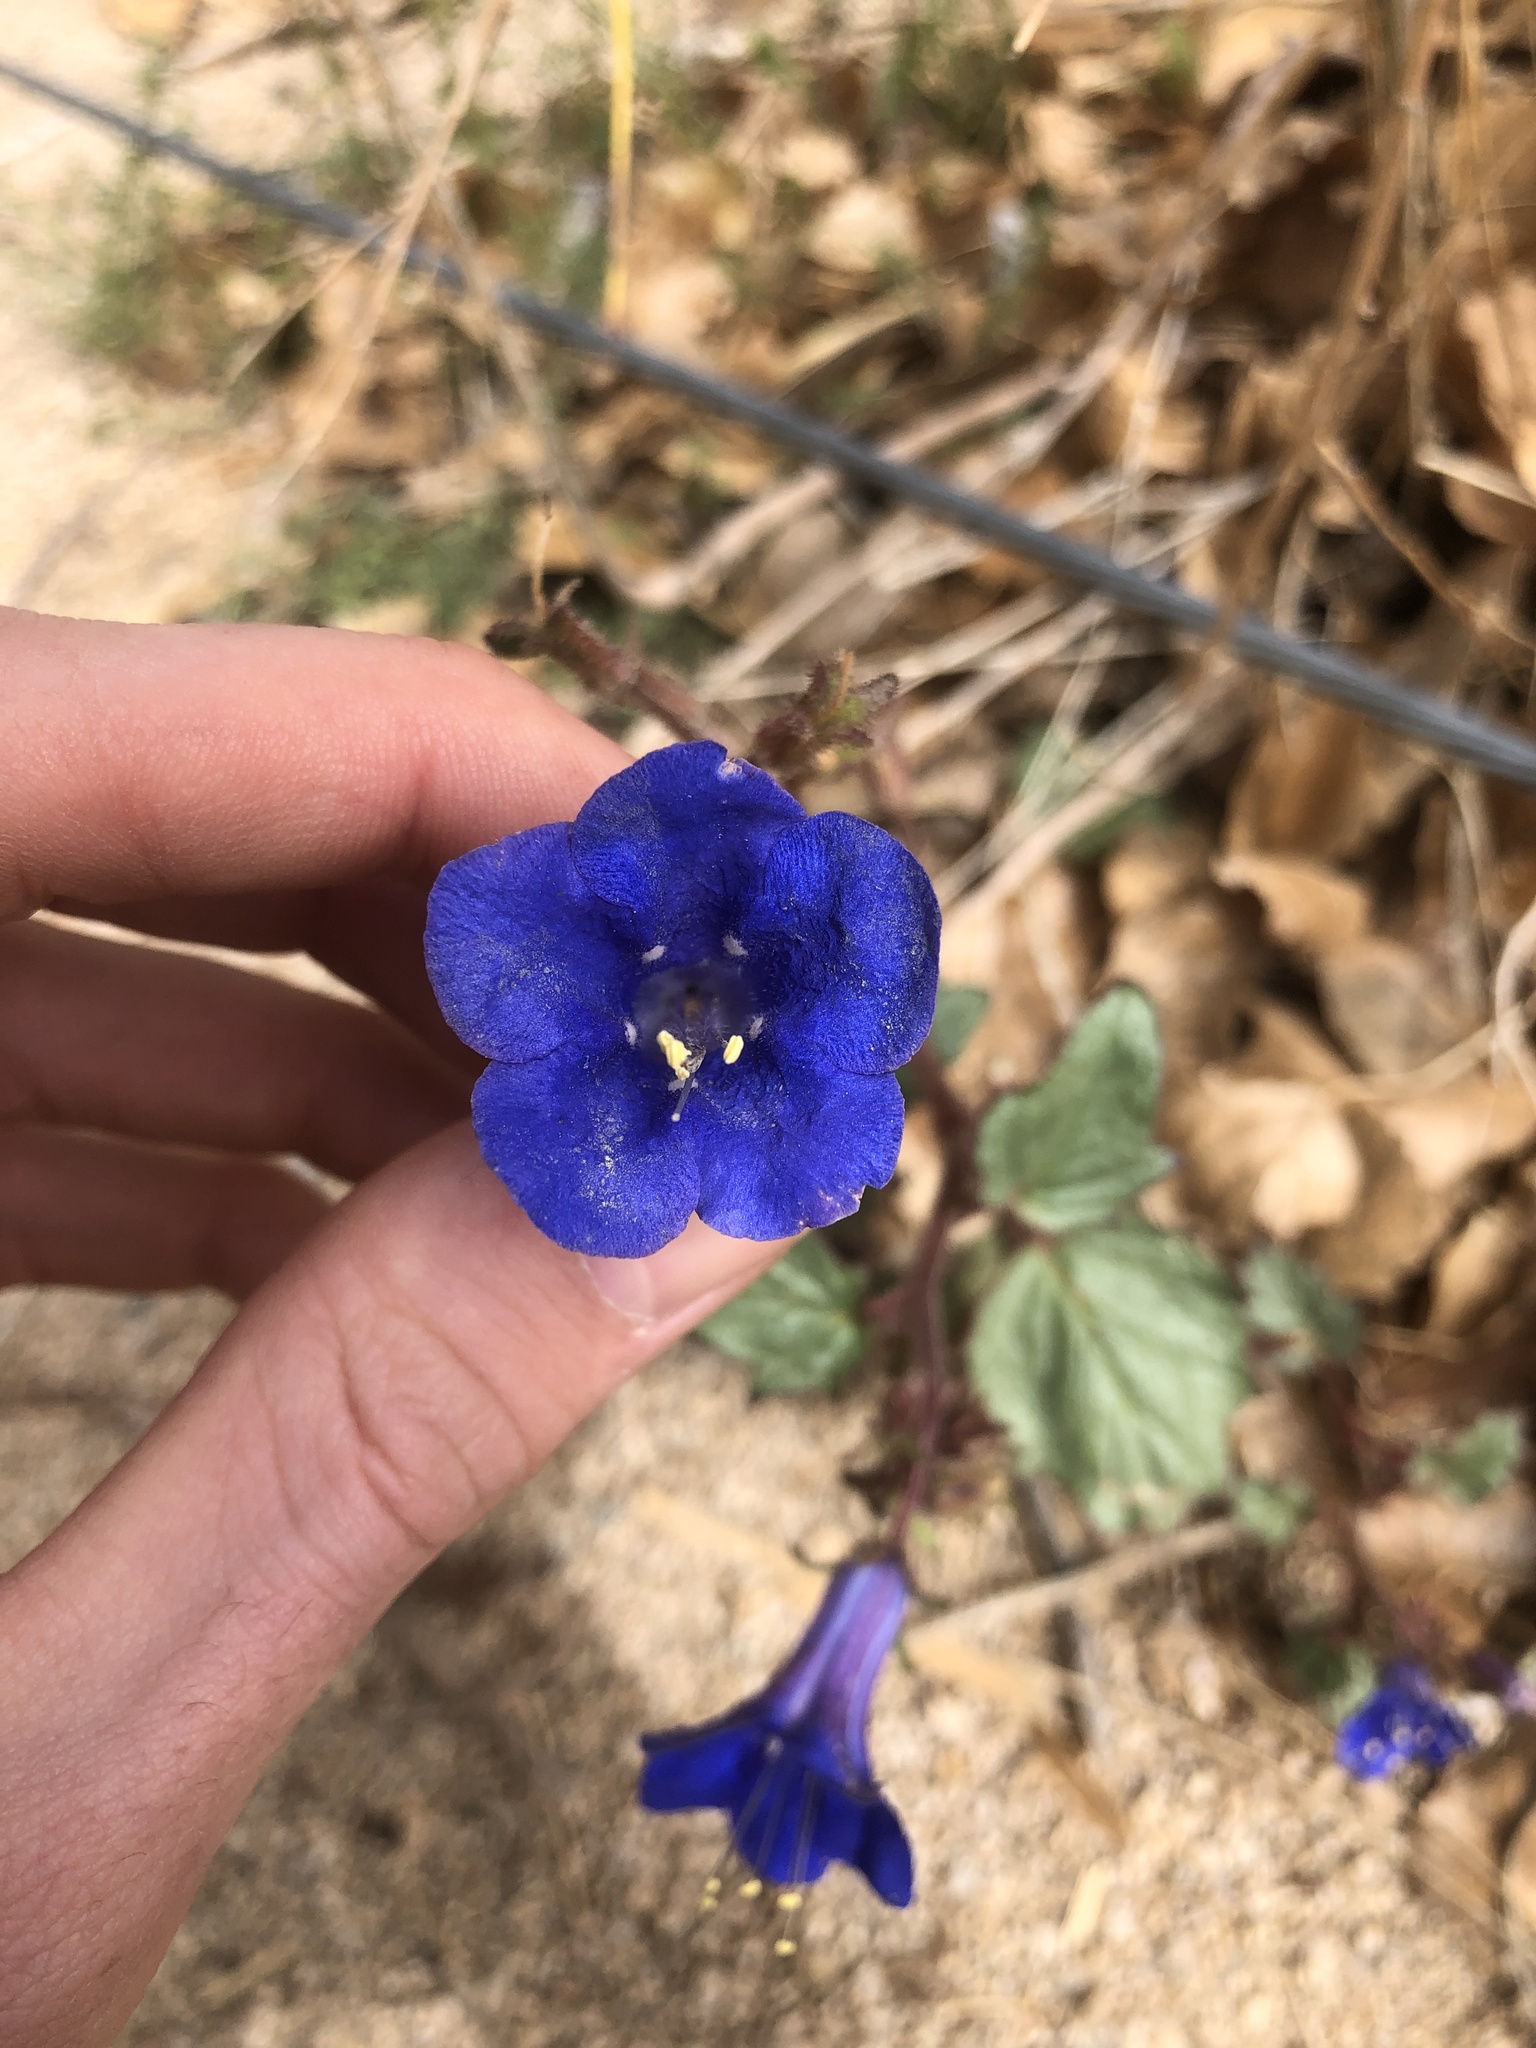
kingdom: Plantae
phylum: Tracheophyta
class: Magnoliopsida
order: Boraginales
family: Hydrophyllaceae
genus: Phacelia
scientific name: Phacelia campanularia
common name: California bluebell
